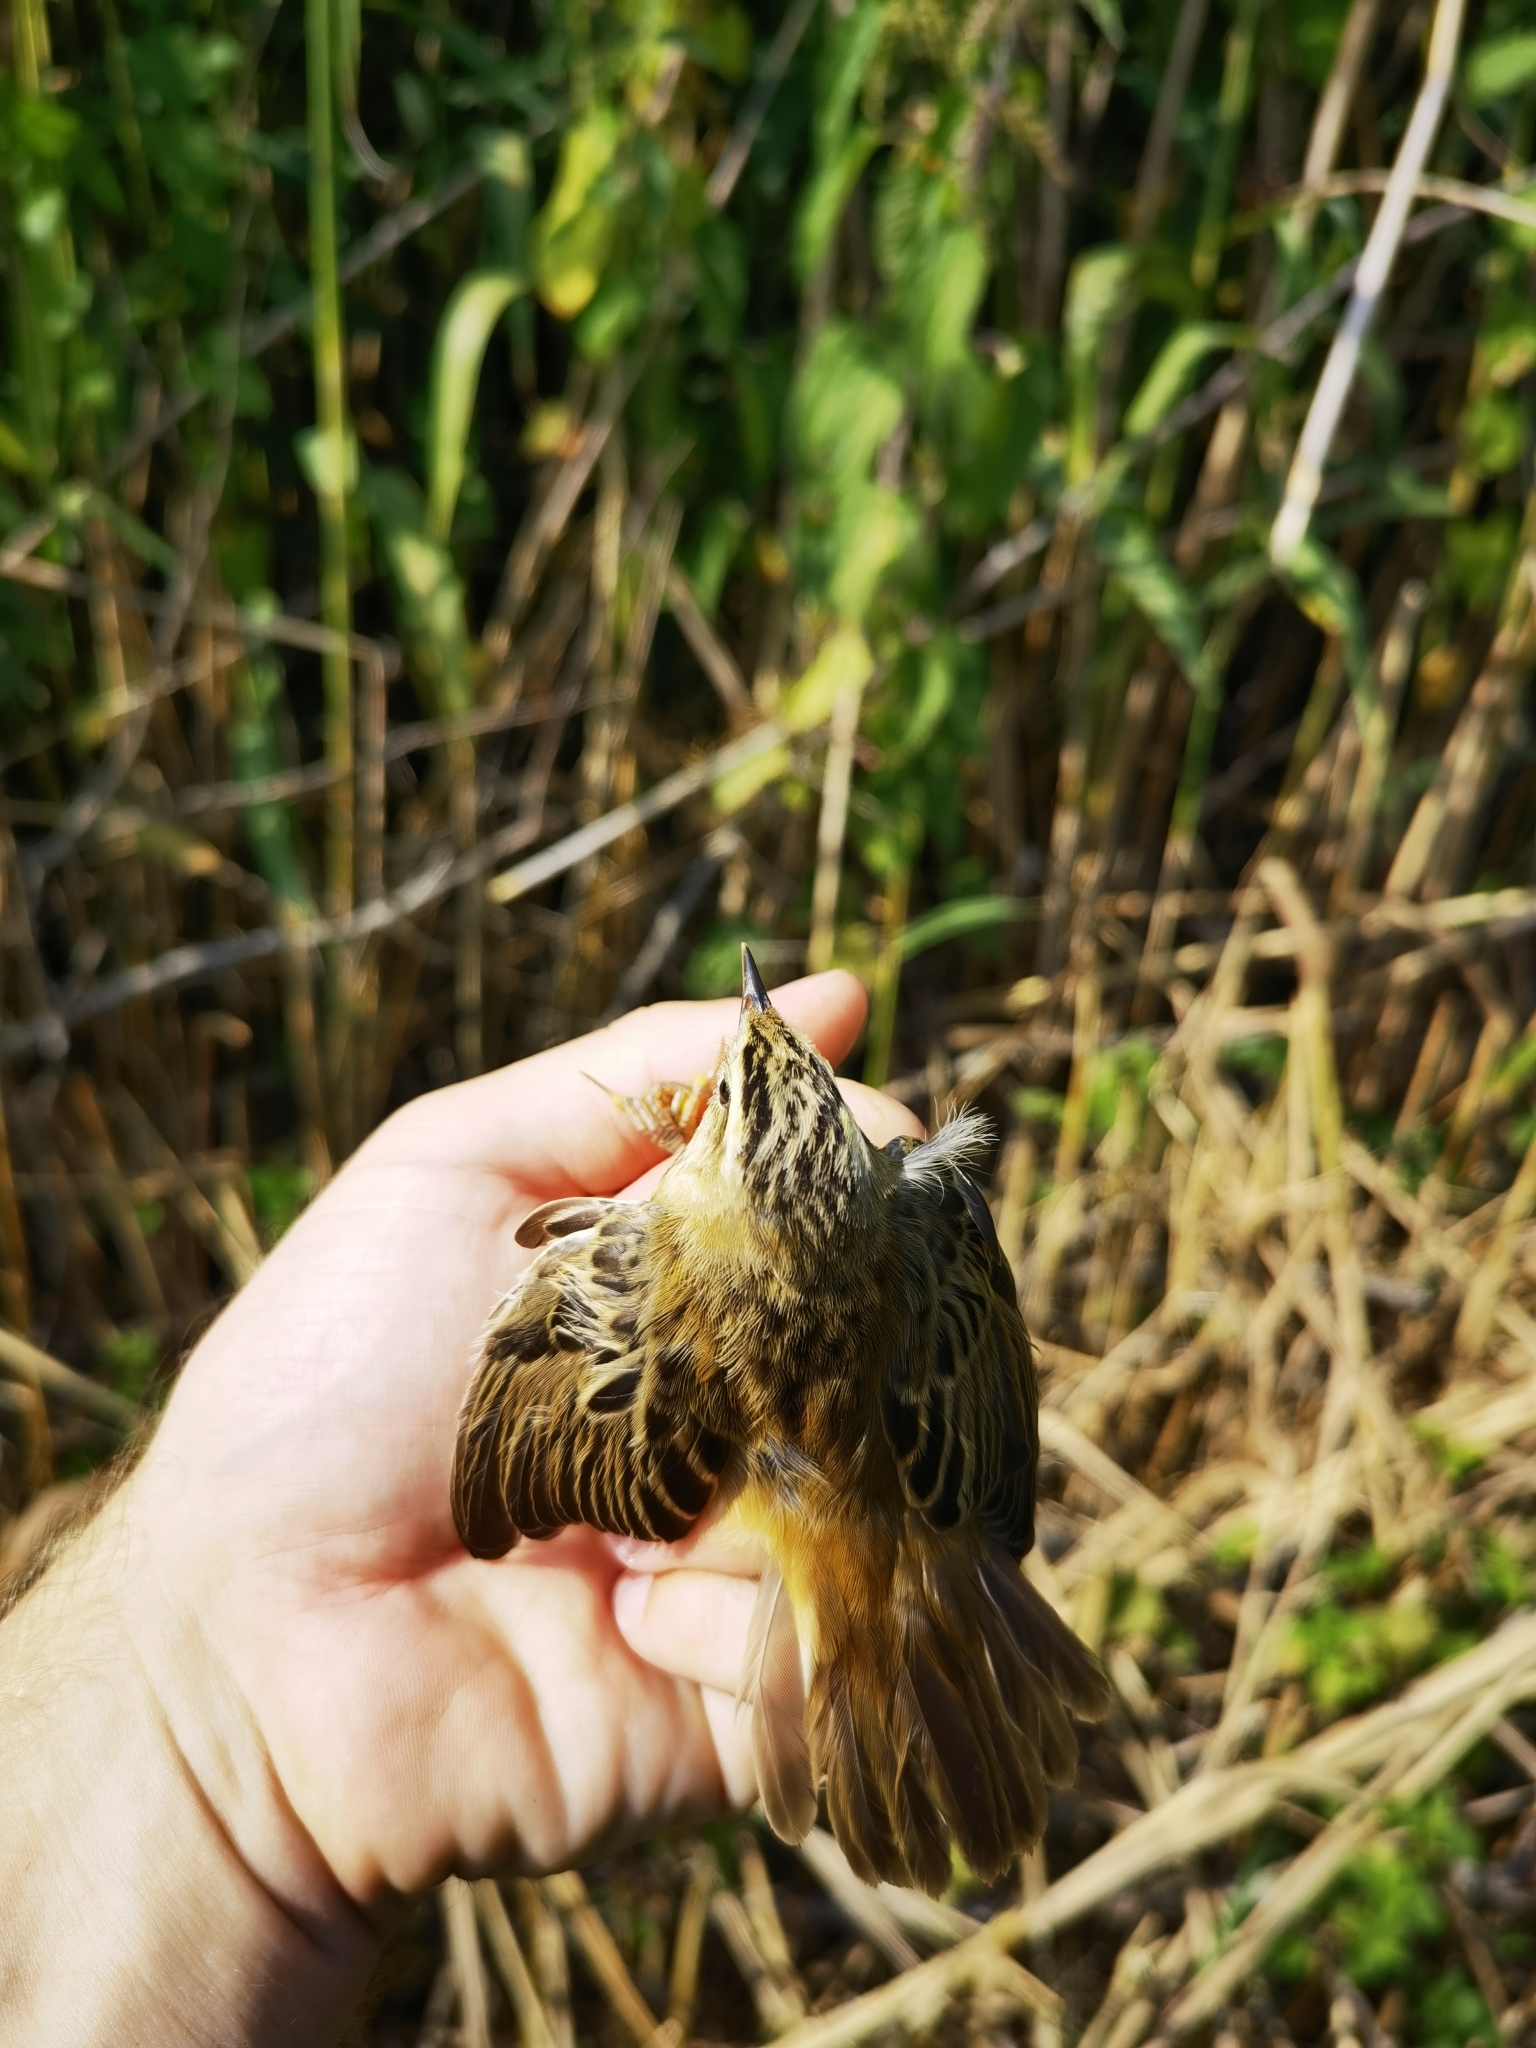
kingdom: Animalia
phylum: Chordata
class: Aves
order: Passeriformes
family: Acrocephalidae
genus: Acrocephalus
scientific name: Acrocephalus schoenobaenus
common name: Sedge warbler
